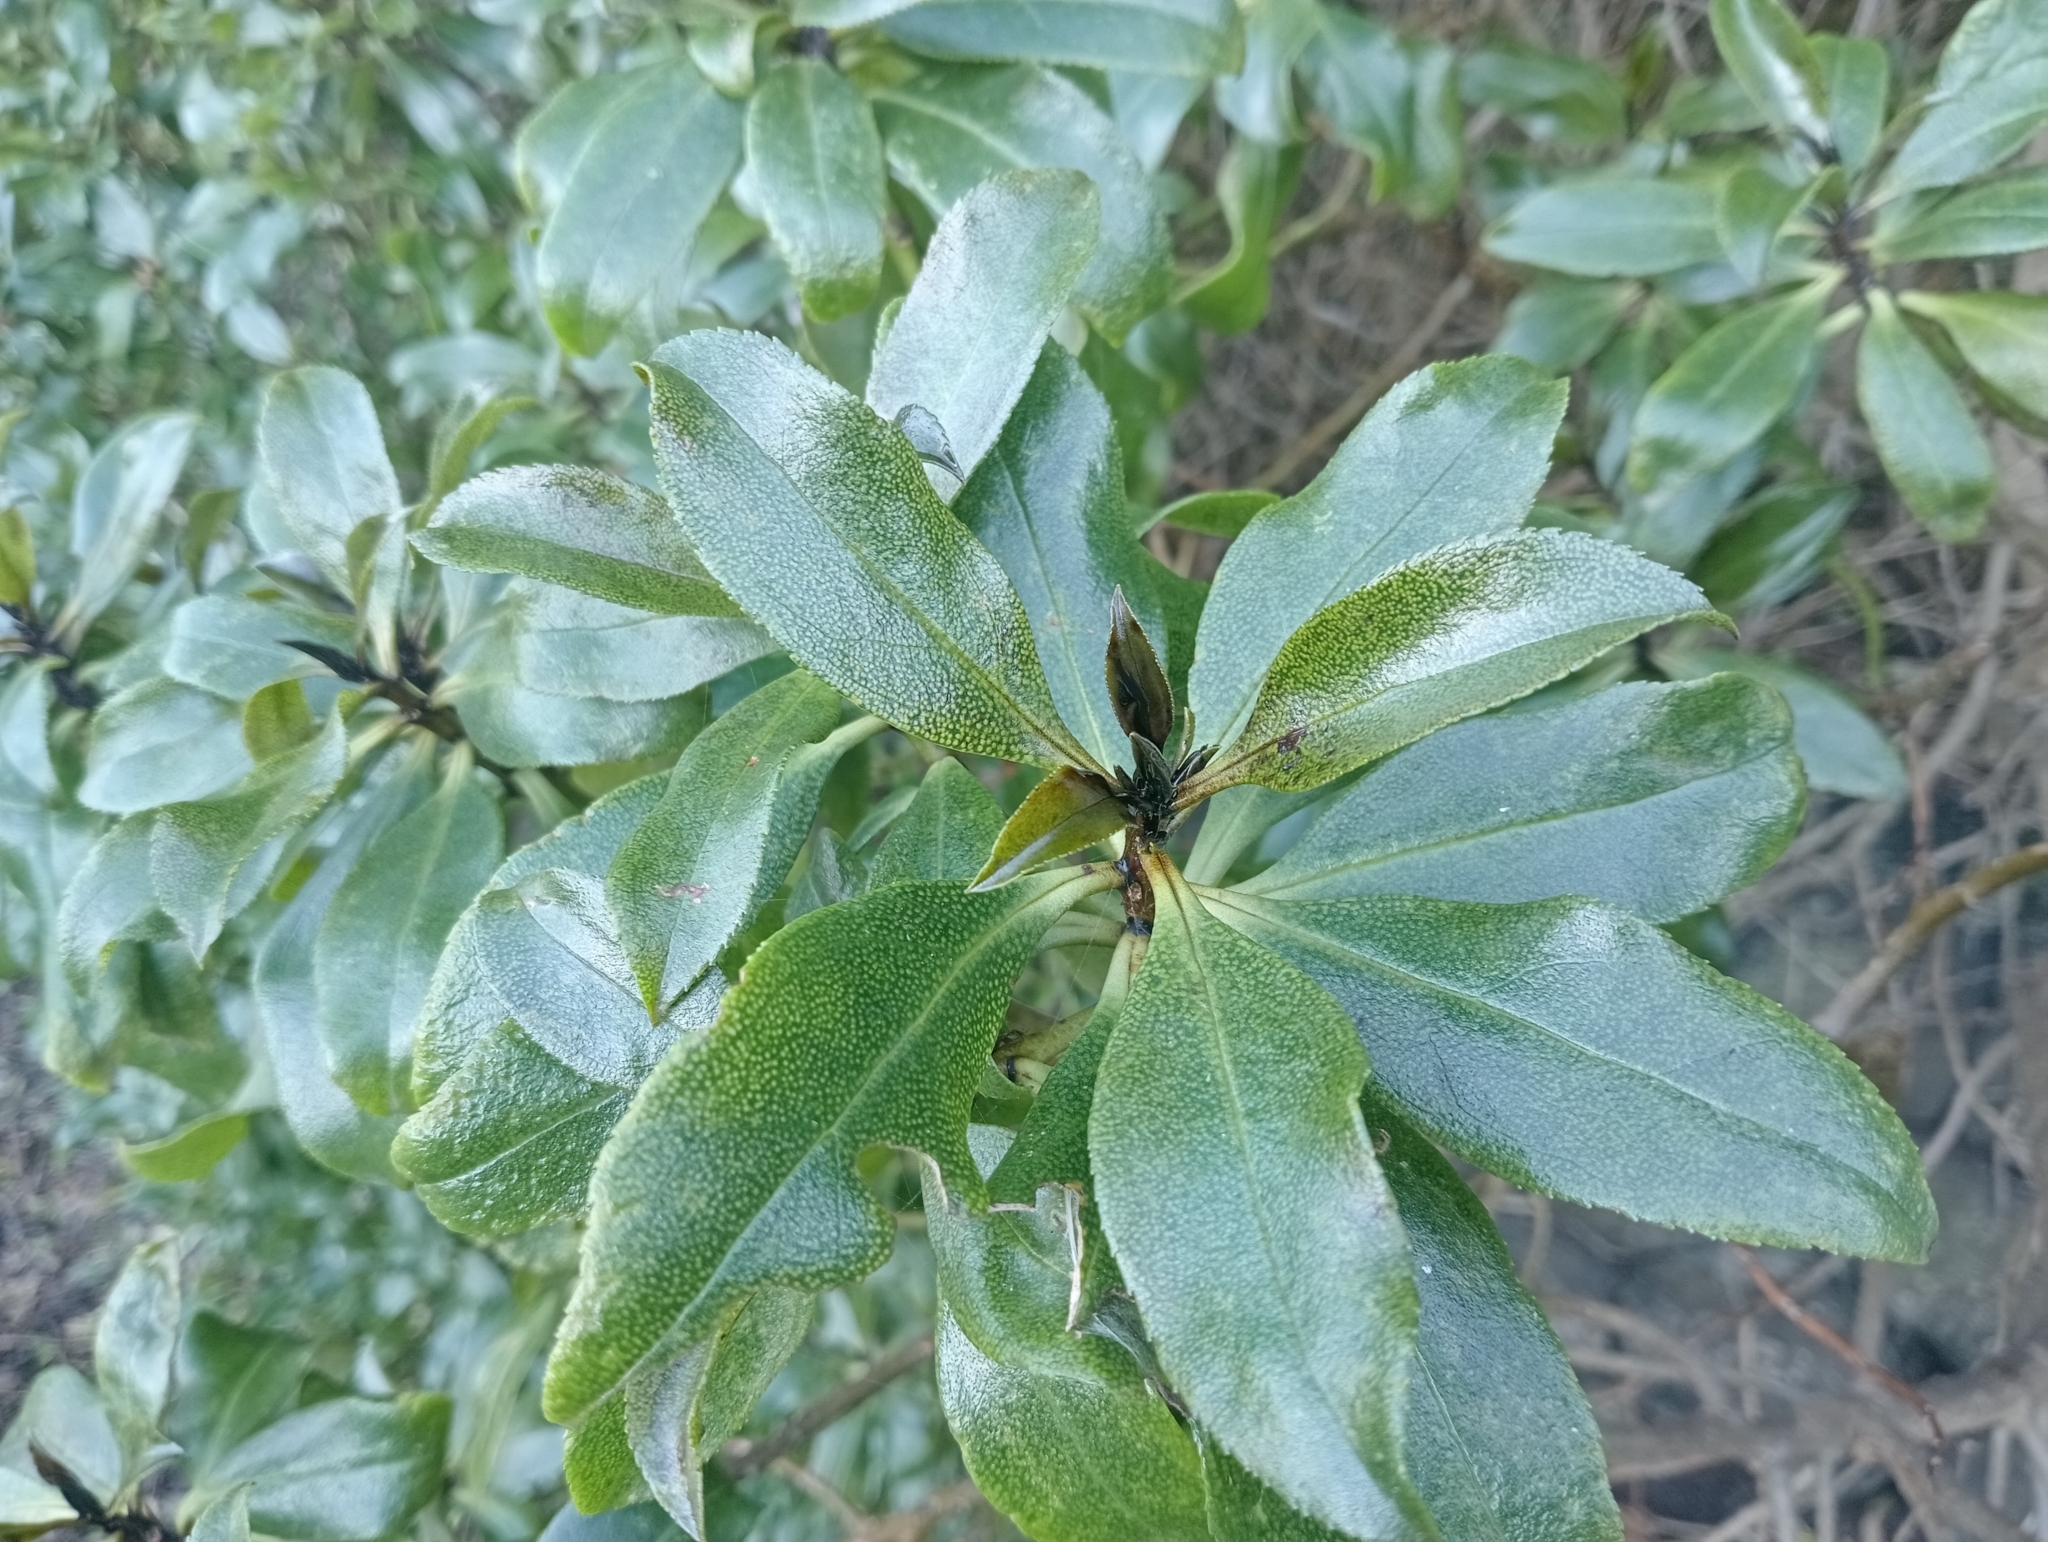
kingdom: Plantae
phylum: Tracheophyta
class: Magnoliopsida
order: Lamiales
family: Scrophulariaceae
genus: Myoporum
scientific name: Myoporum laetum
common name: Ngaio tree
